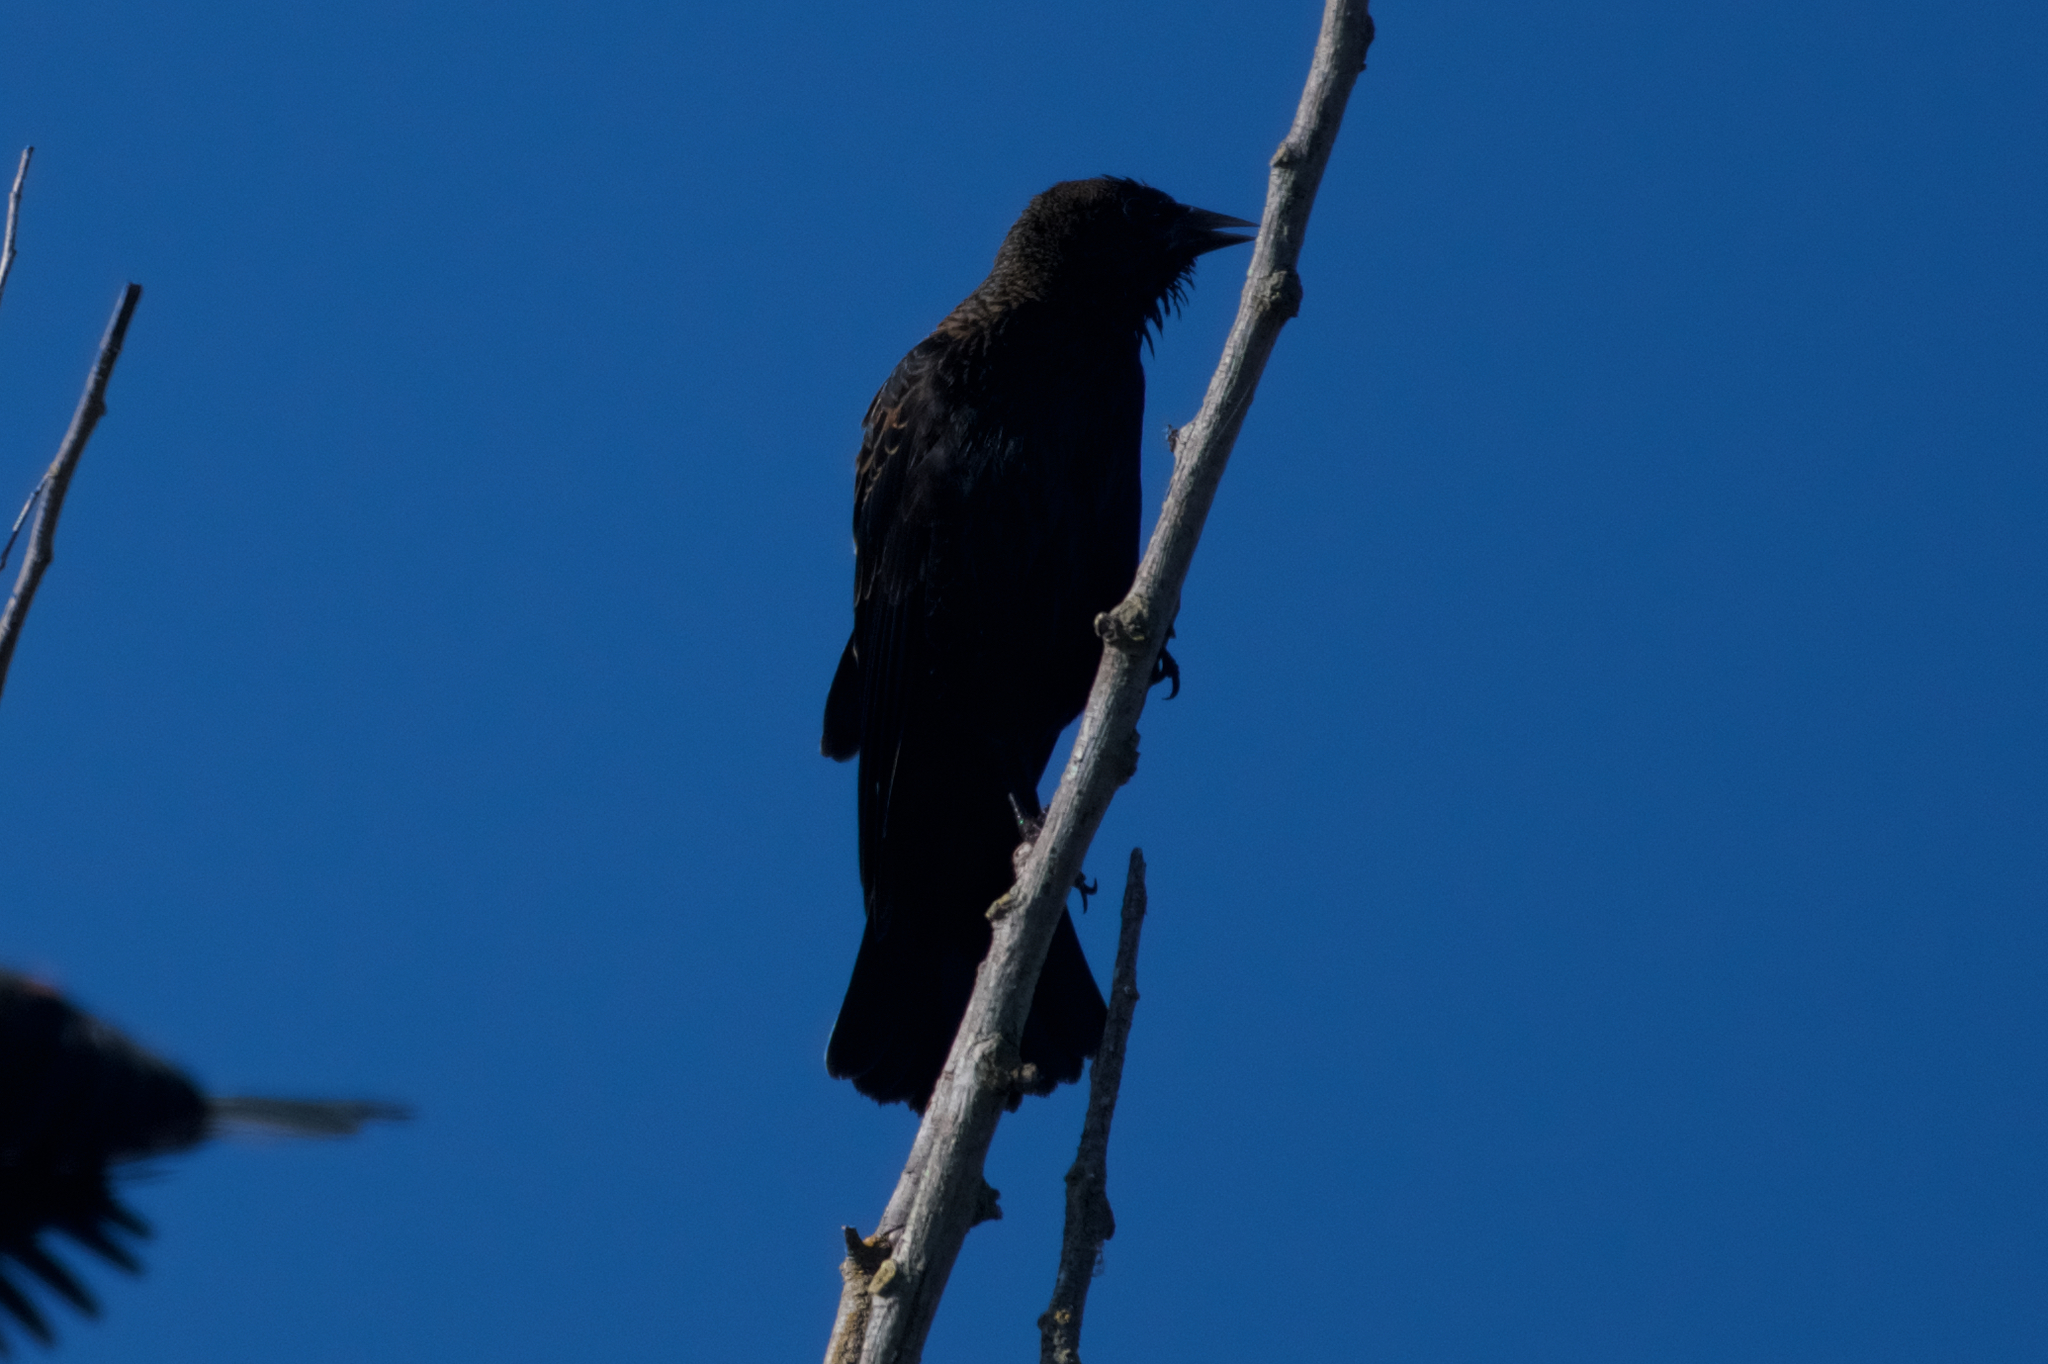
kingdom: Animalia
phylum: Chordata
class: Aves
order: Passeriformes
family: Icteridae
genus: Agelaius
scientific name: Agelaius phoeniceus
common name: Red-winged blackbird
